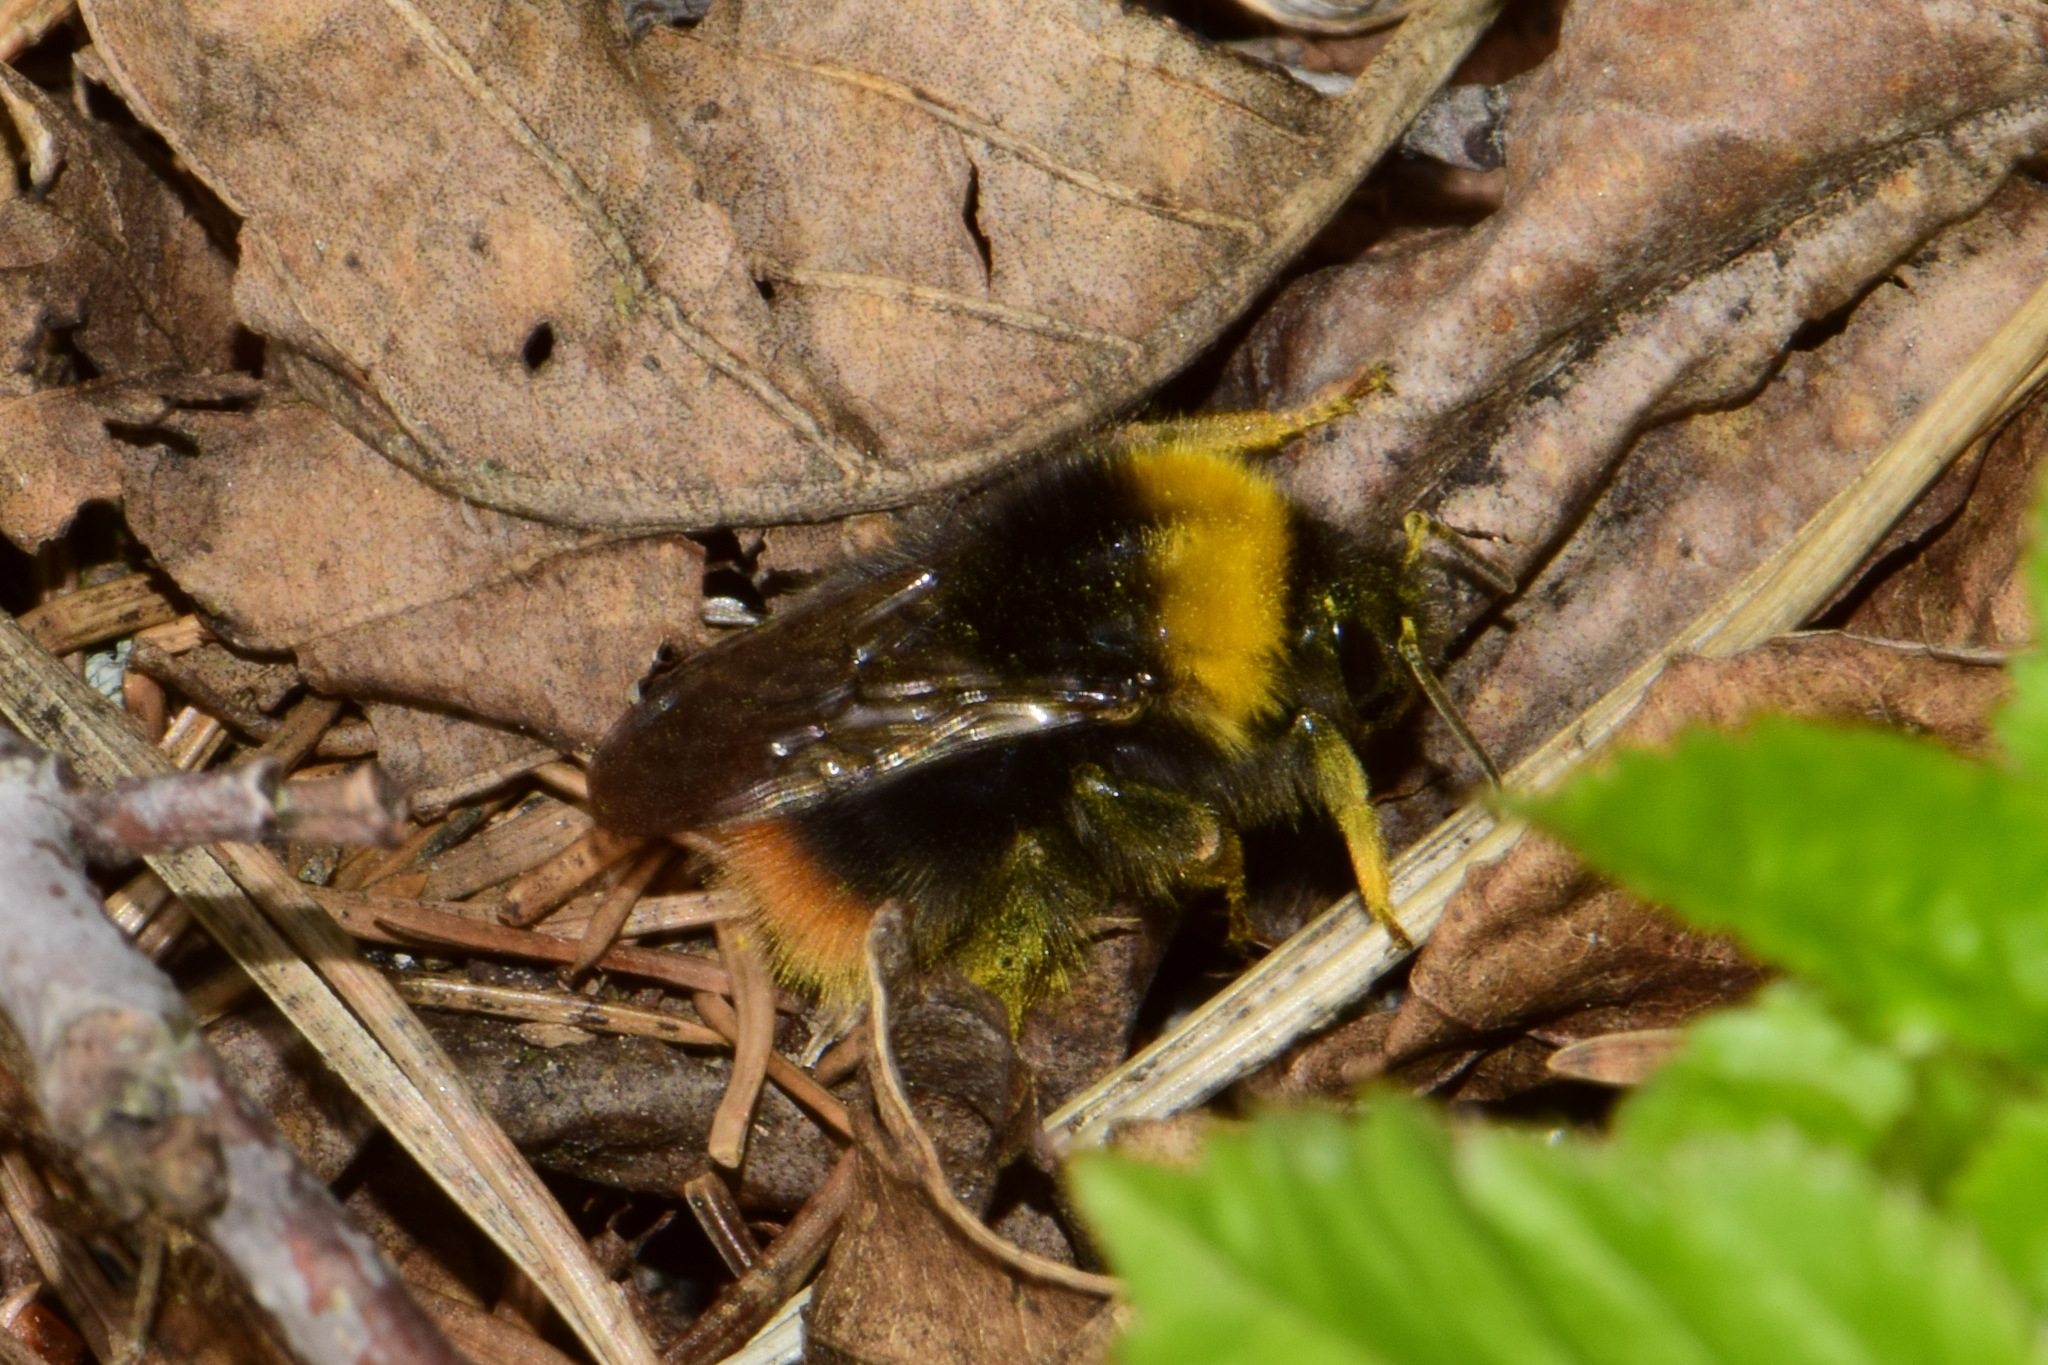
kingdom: Animalia
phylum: Arthropoda
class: Insecta
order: Hymenoptera
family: Apidae
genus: Bombus
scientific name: Bombus pratorum
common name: Early humble-bee
